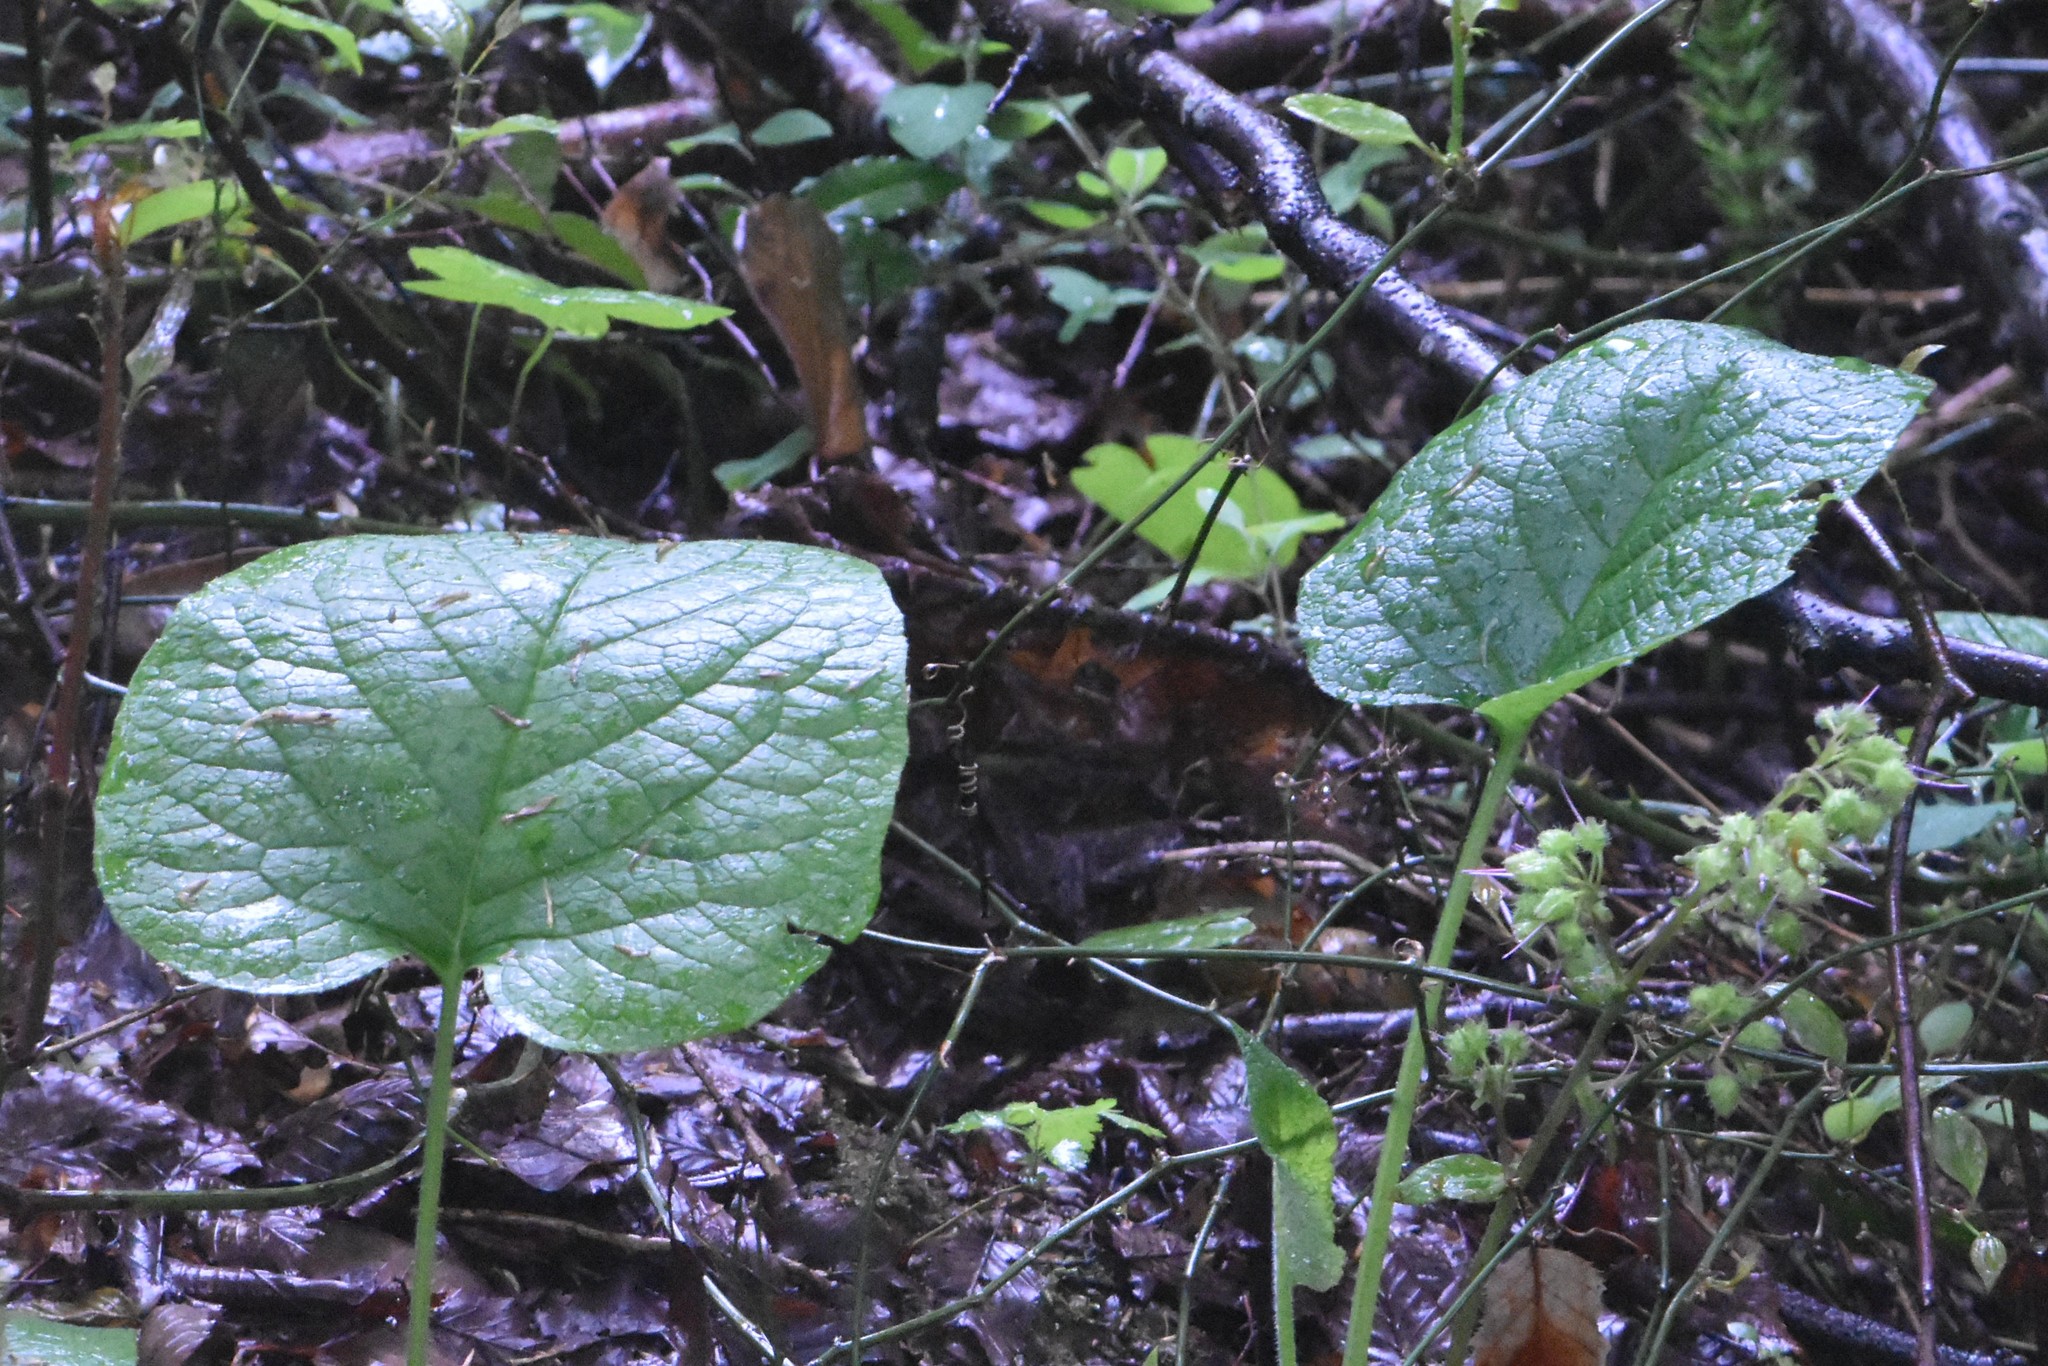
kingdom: Plantae
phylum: Tracheophyta
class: Magnoliopsida
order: Boraginales
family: Boraginaceae
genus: Trachystemon
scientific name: Trachystemon orientale
